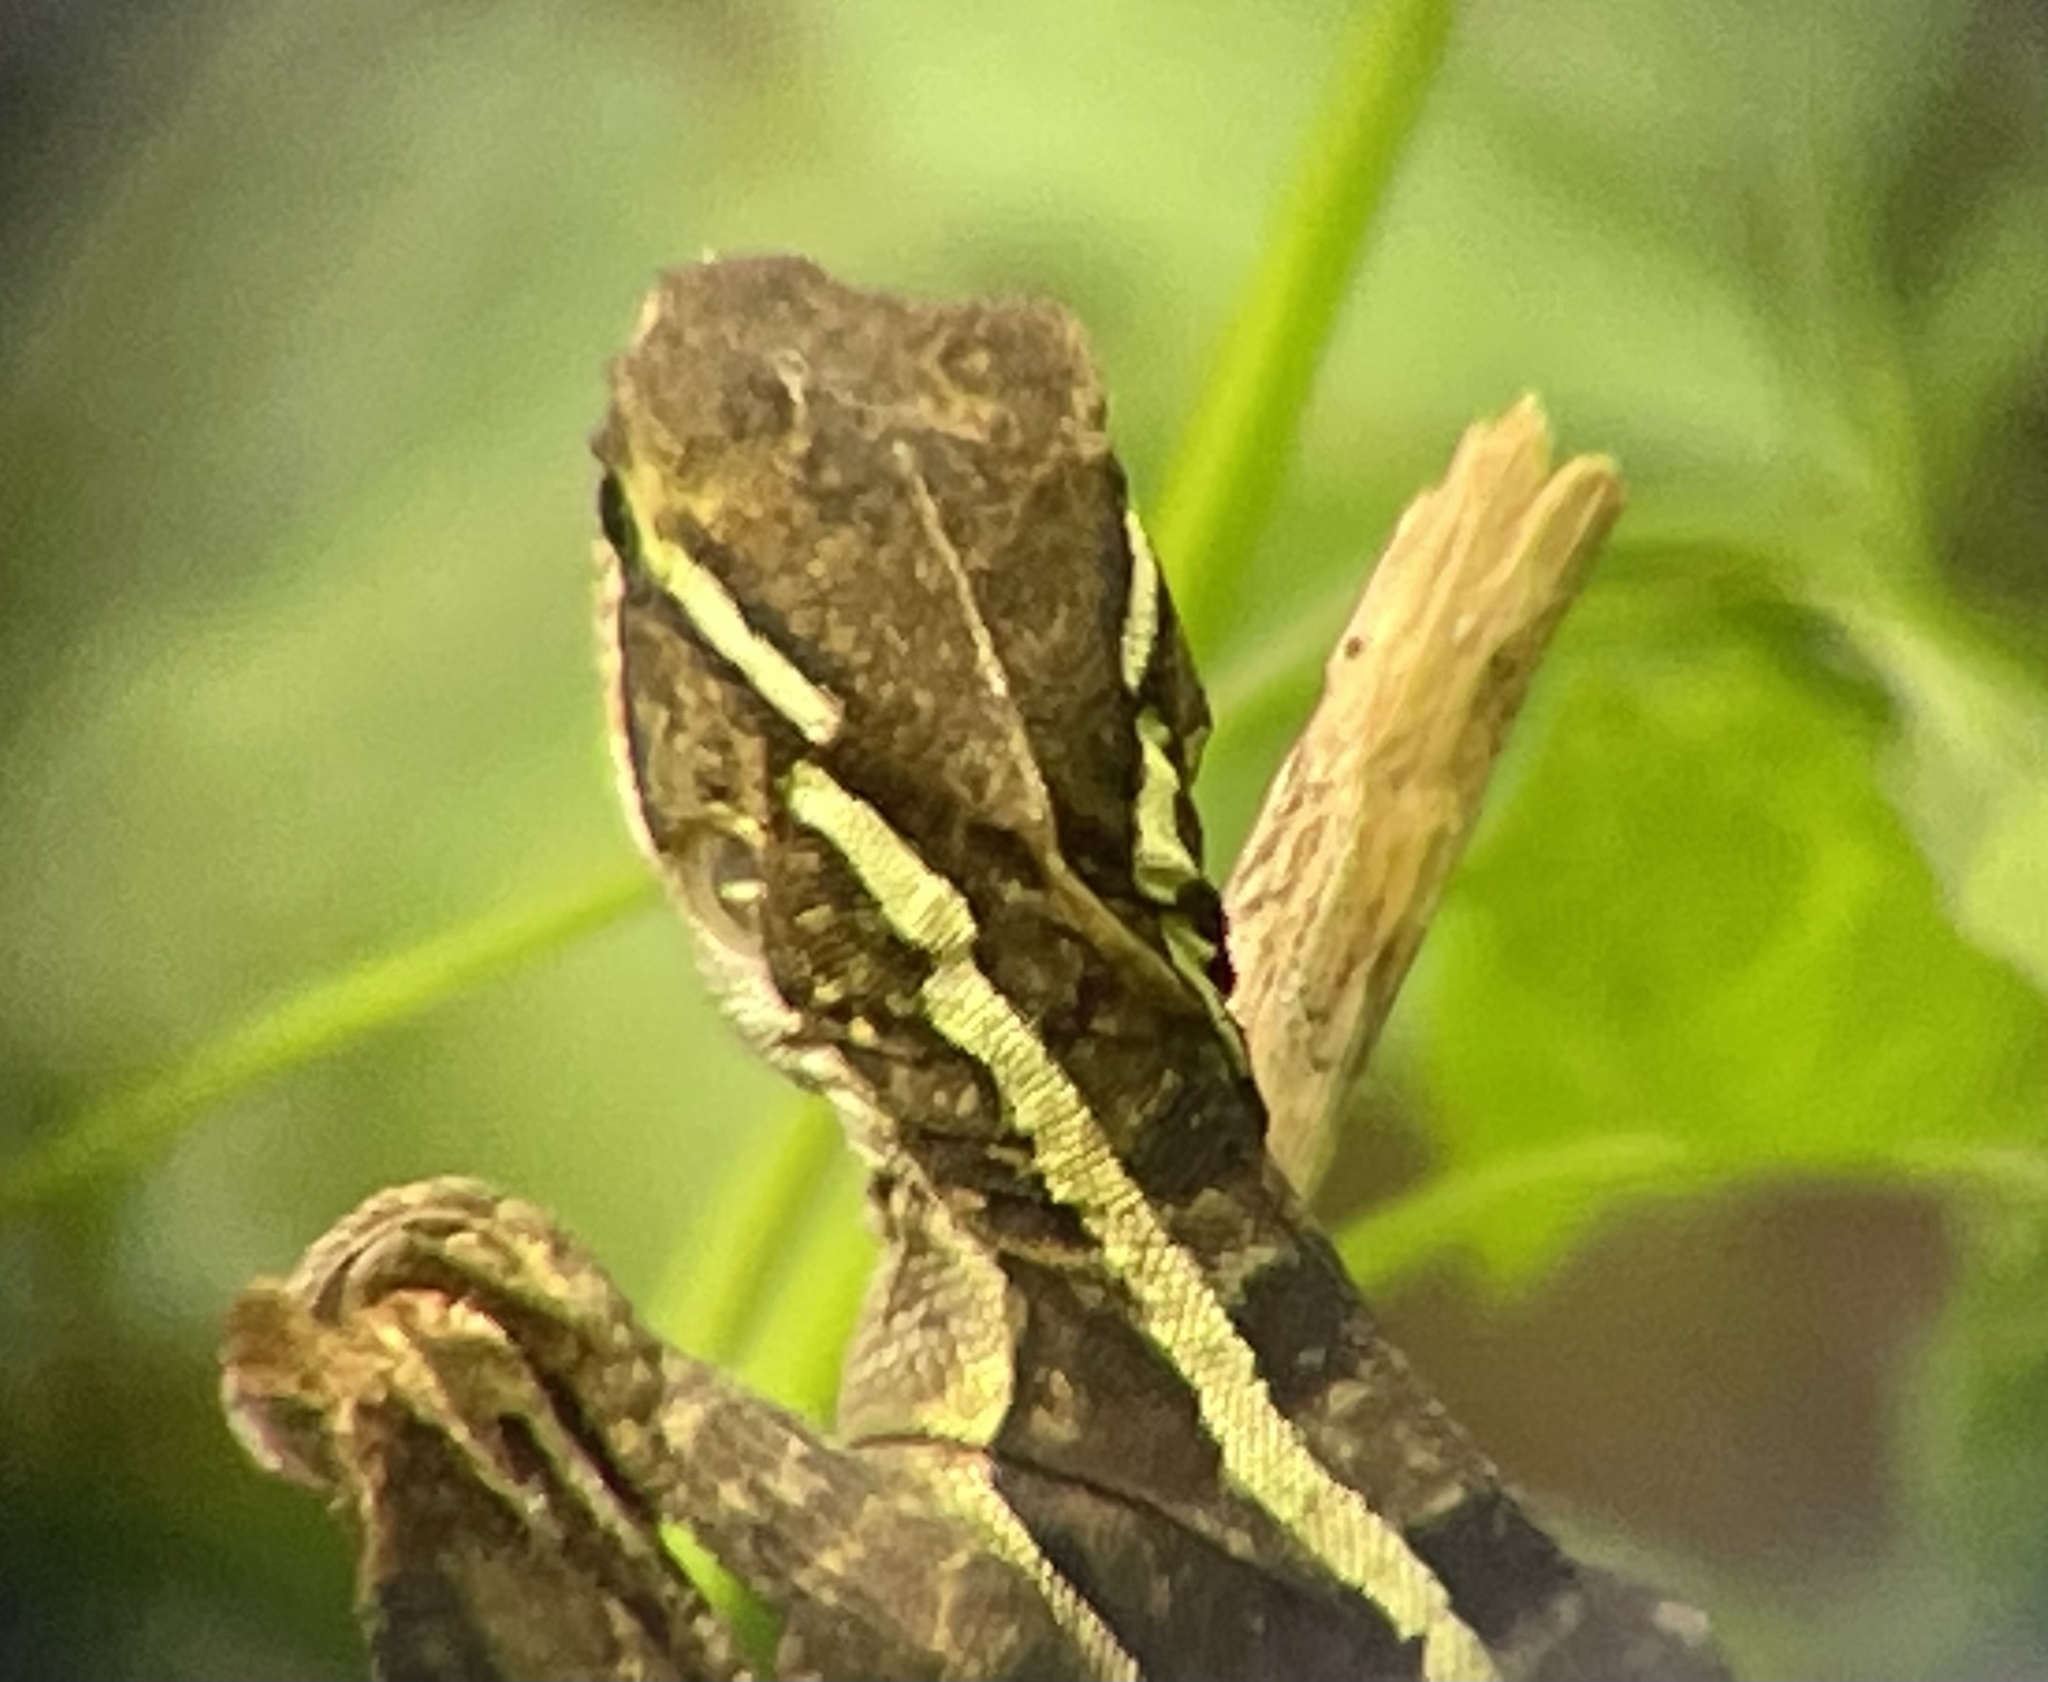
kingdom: Animalia
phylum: Chordata
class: Squamata
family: Corytophanidae
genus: Basiliscus
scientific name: Basiliscus vittatus
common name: Brown basilisk
